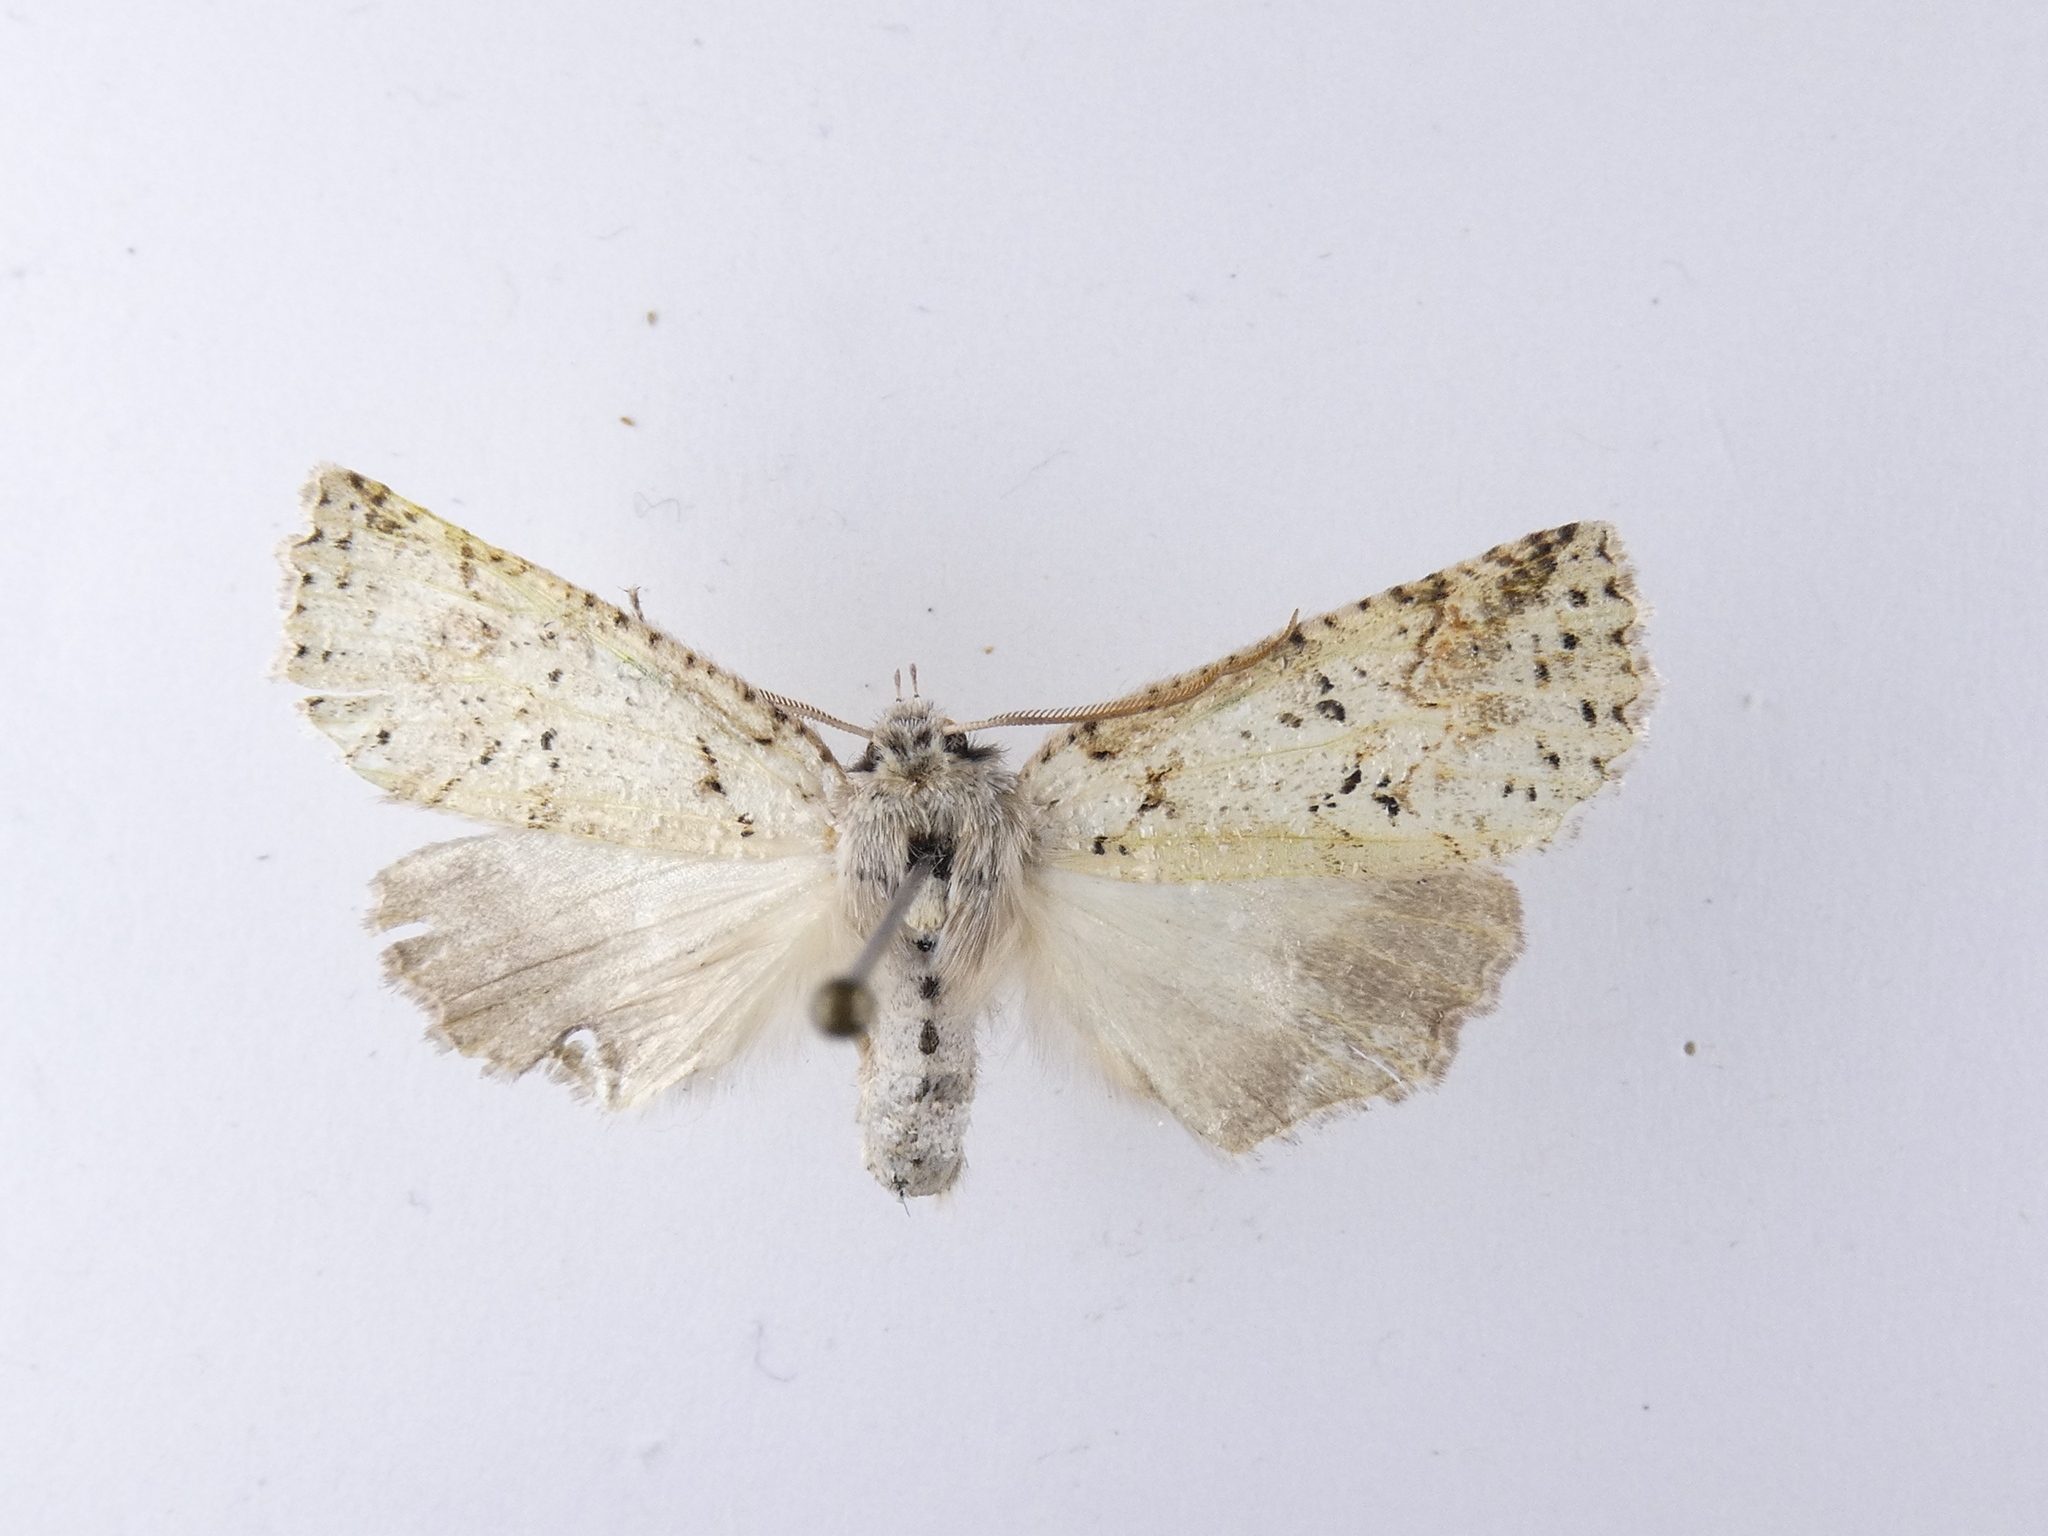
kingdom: Animalia
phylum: Arthropoda
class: Insecta
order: Lepidoptera
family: Geometridae
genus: Declana
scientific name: Declana floccosa
